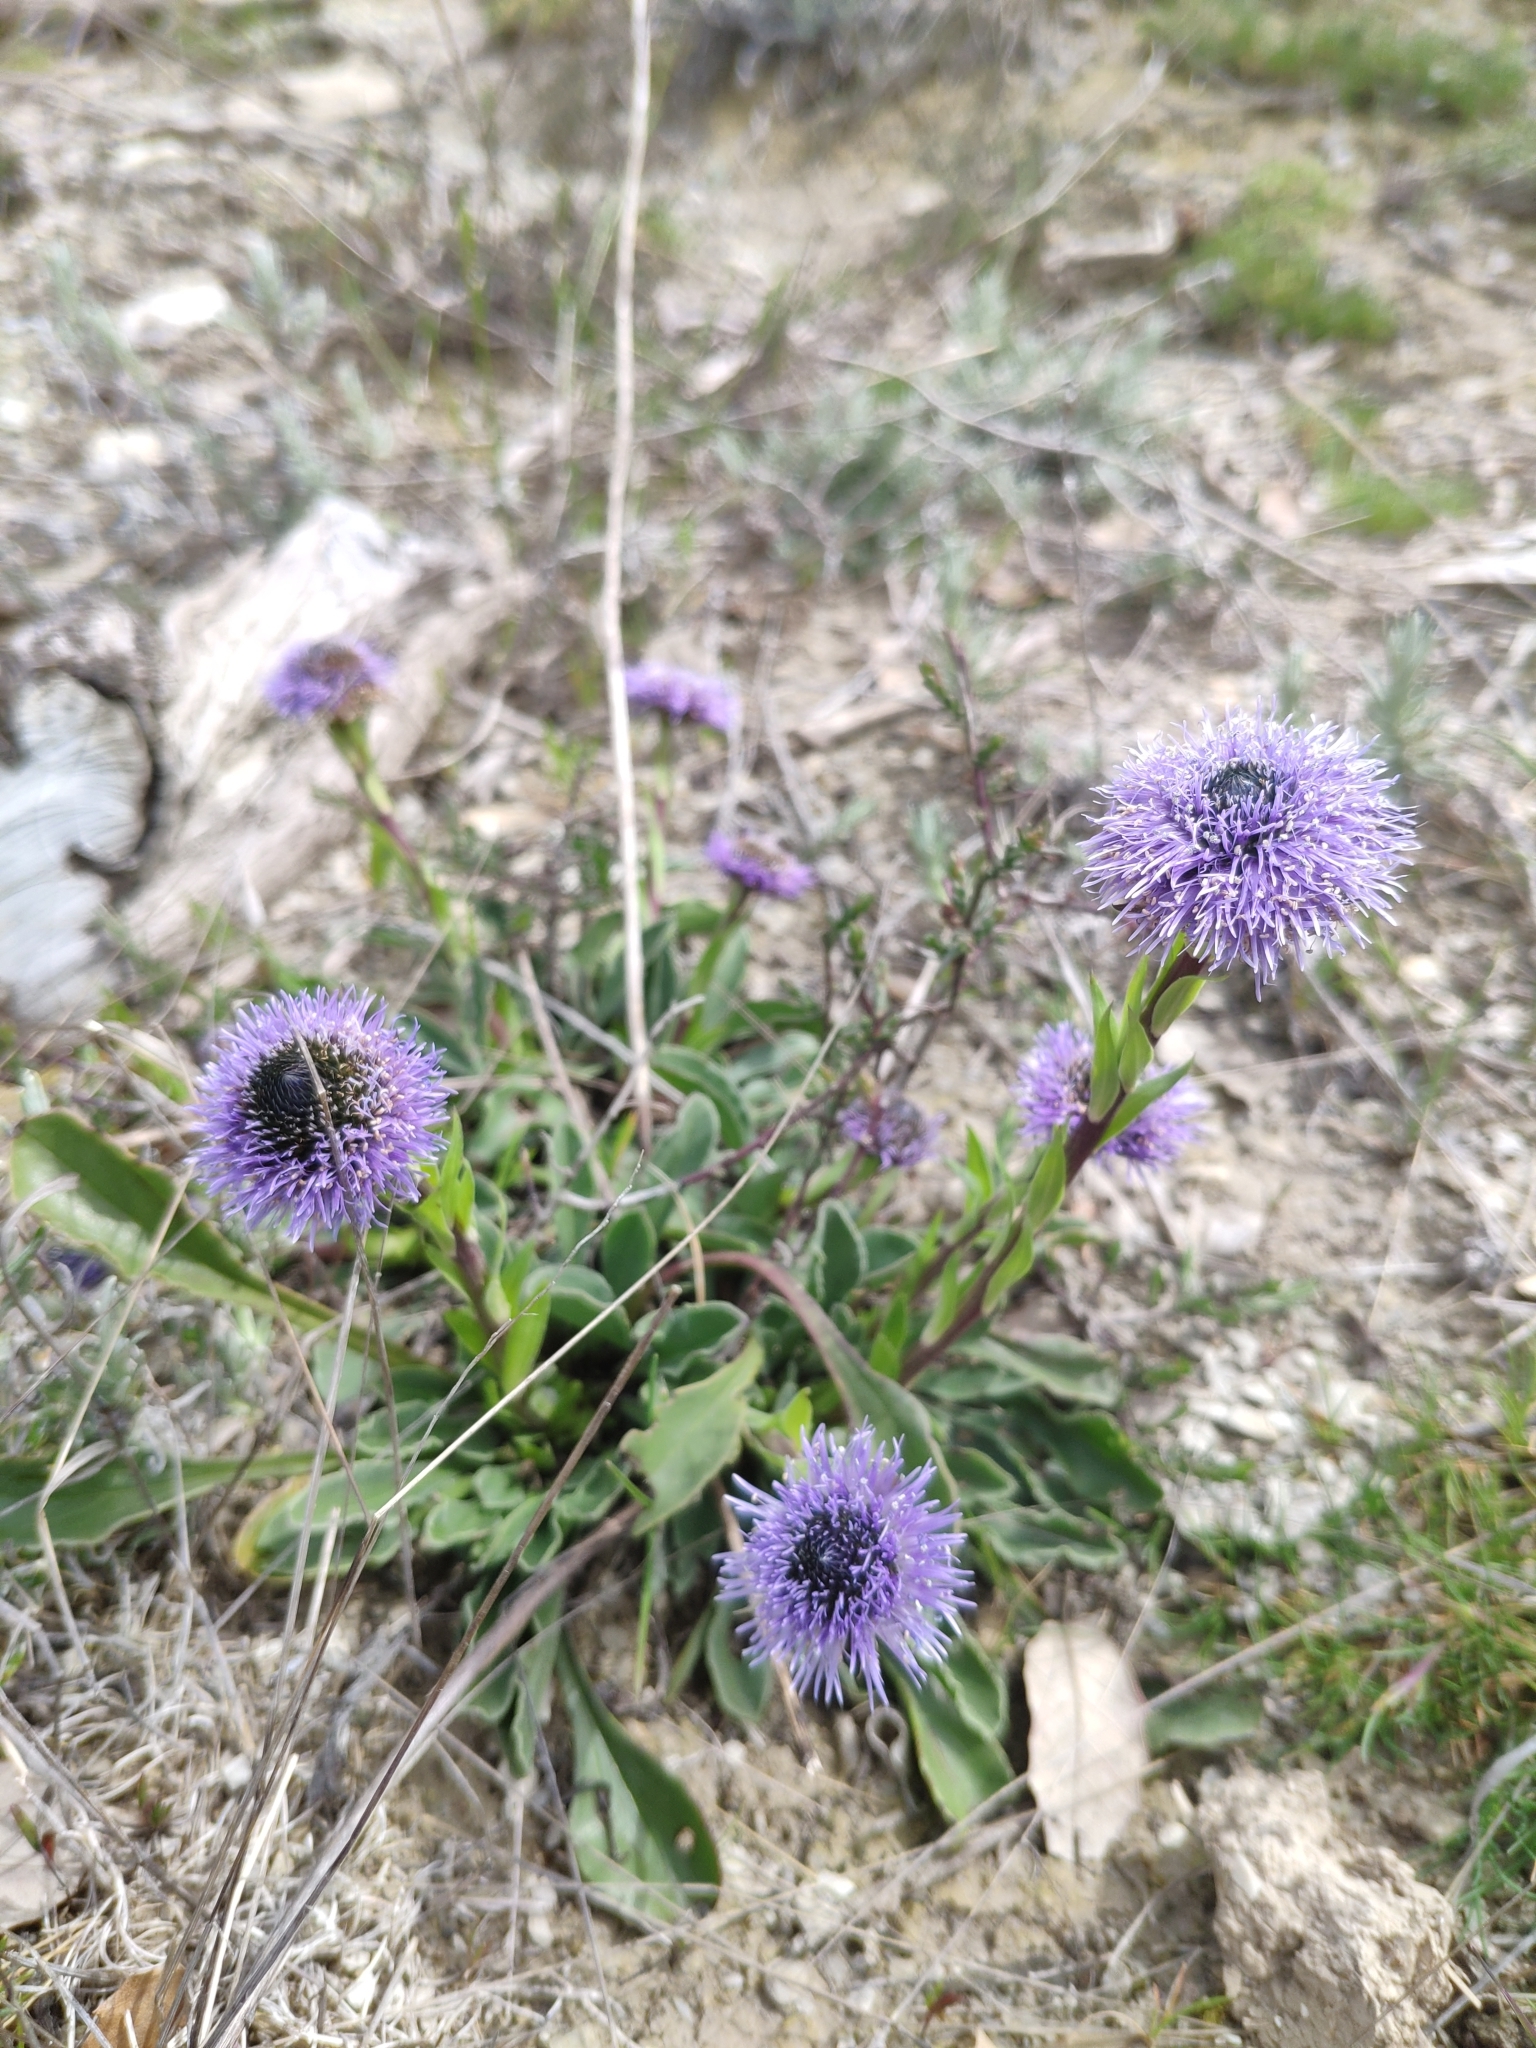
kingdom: Plantae
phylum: Tracheophyta
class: Magnoliopsida
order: Lamiales
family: Plantaginaceae
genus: Globularia
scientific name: Globularia vulgaris
